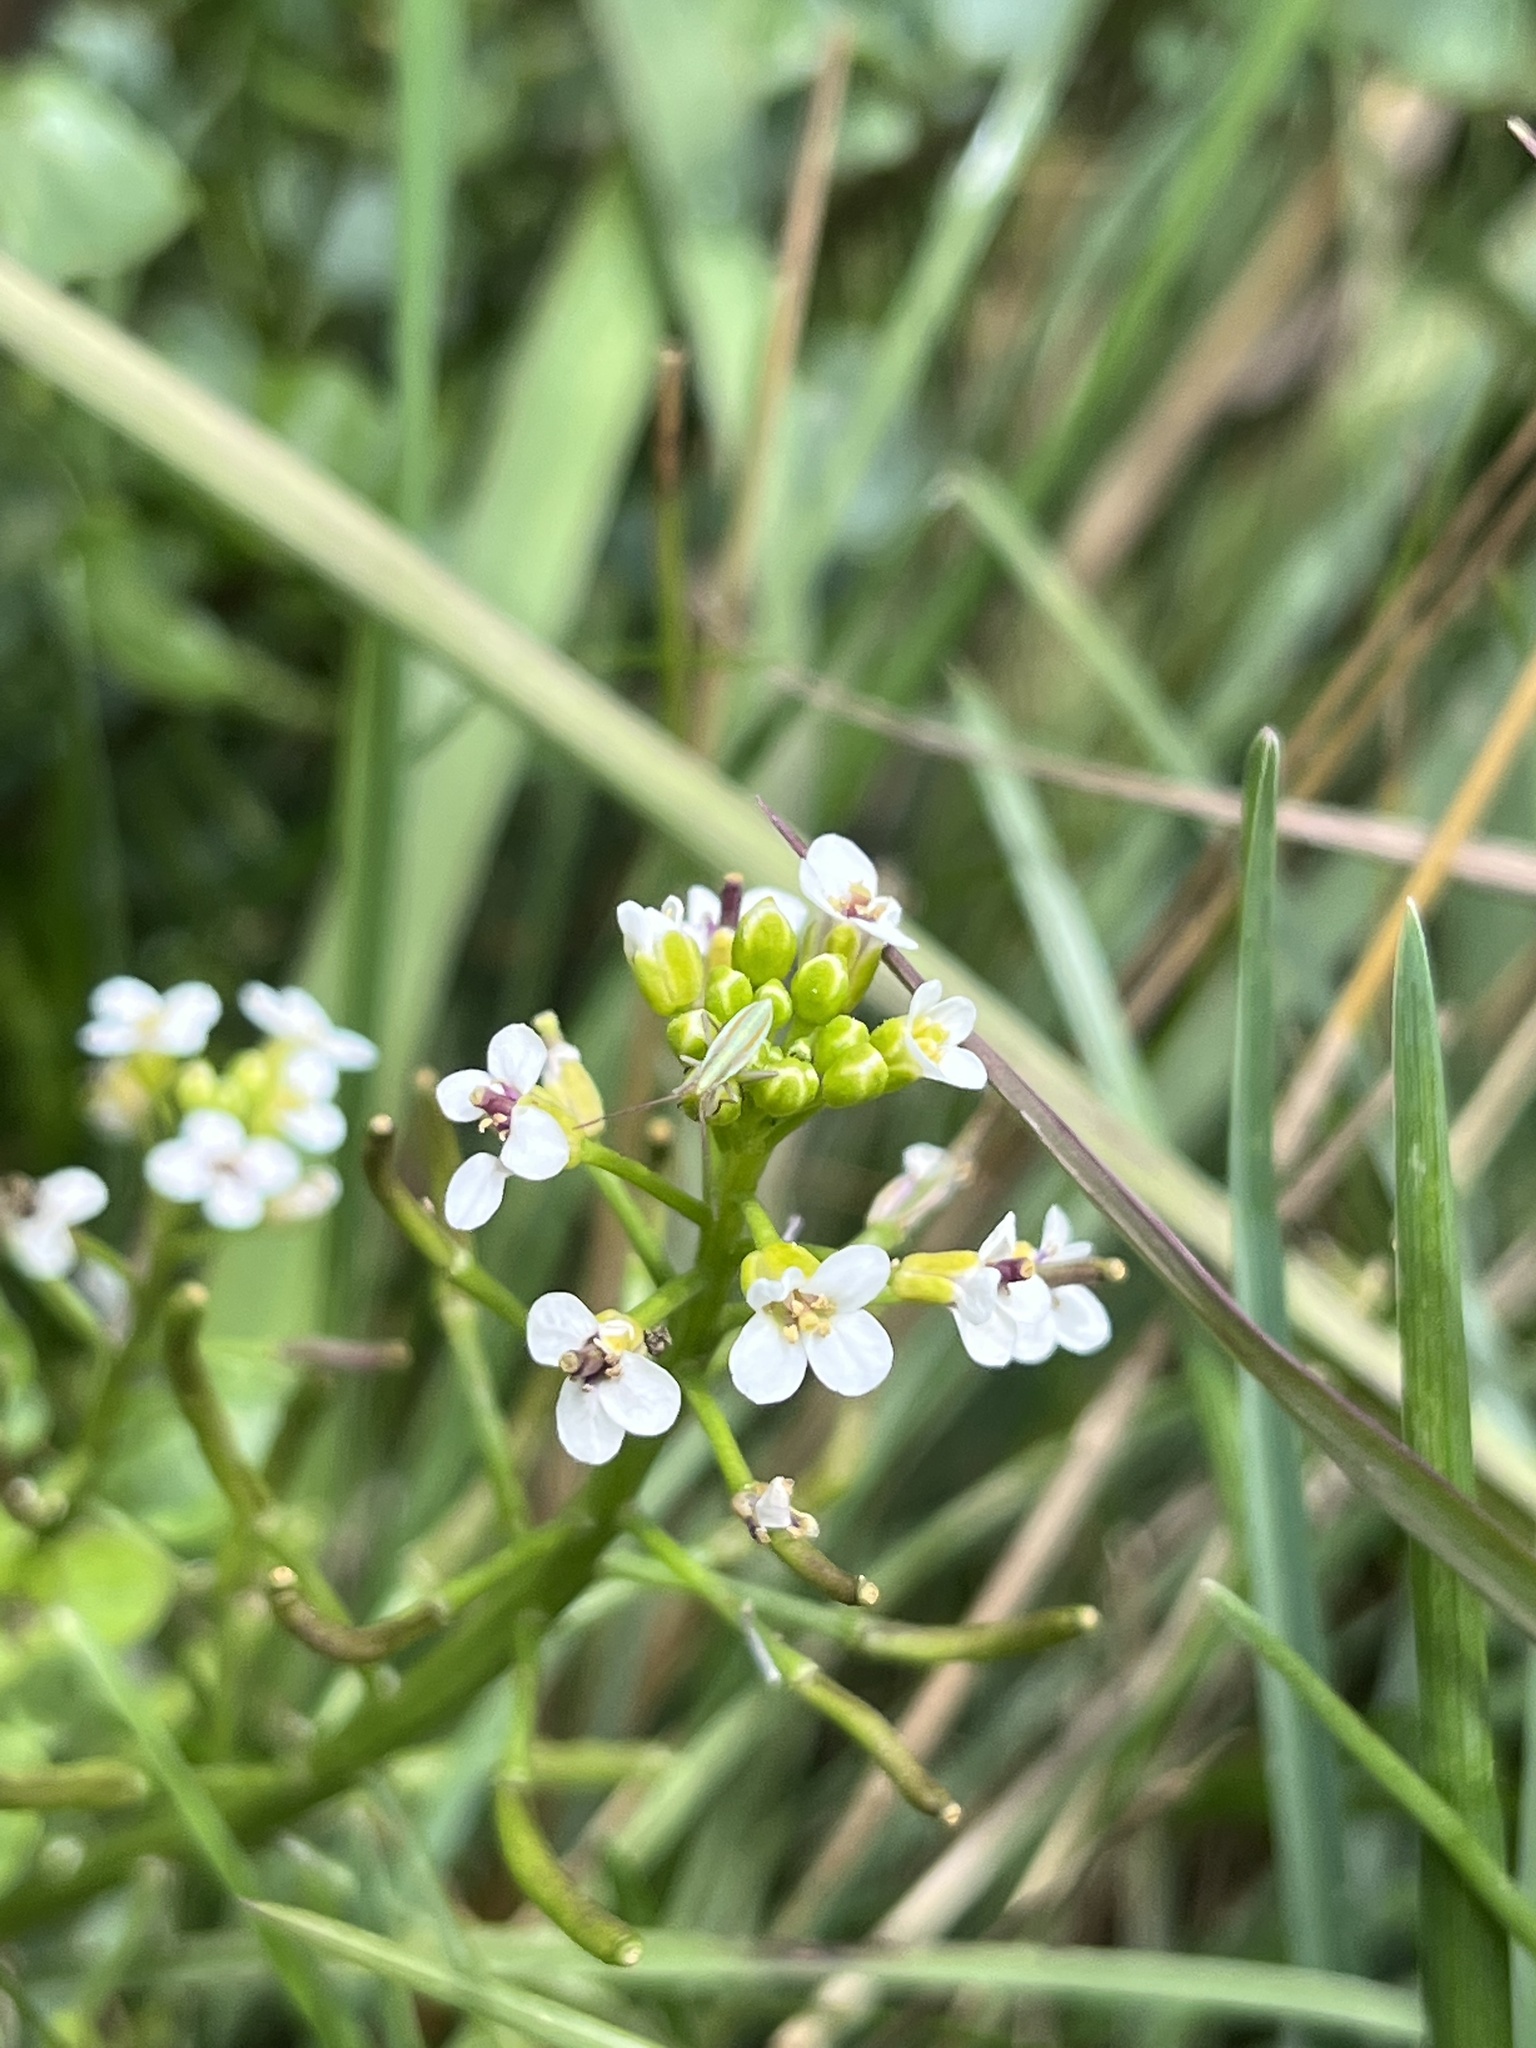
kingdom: Plantae
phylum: Tracheophyta
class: Magnoliopsida
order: Brassicales
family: Brassicaceae
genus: Nasturtium
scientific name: Nasturtium officinale
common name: Watercress
